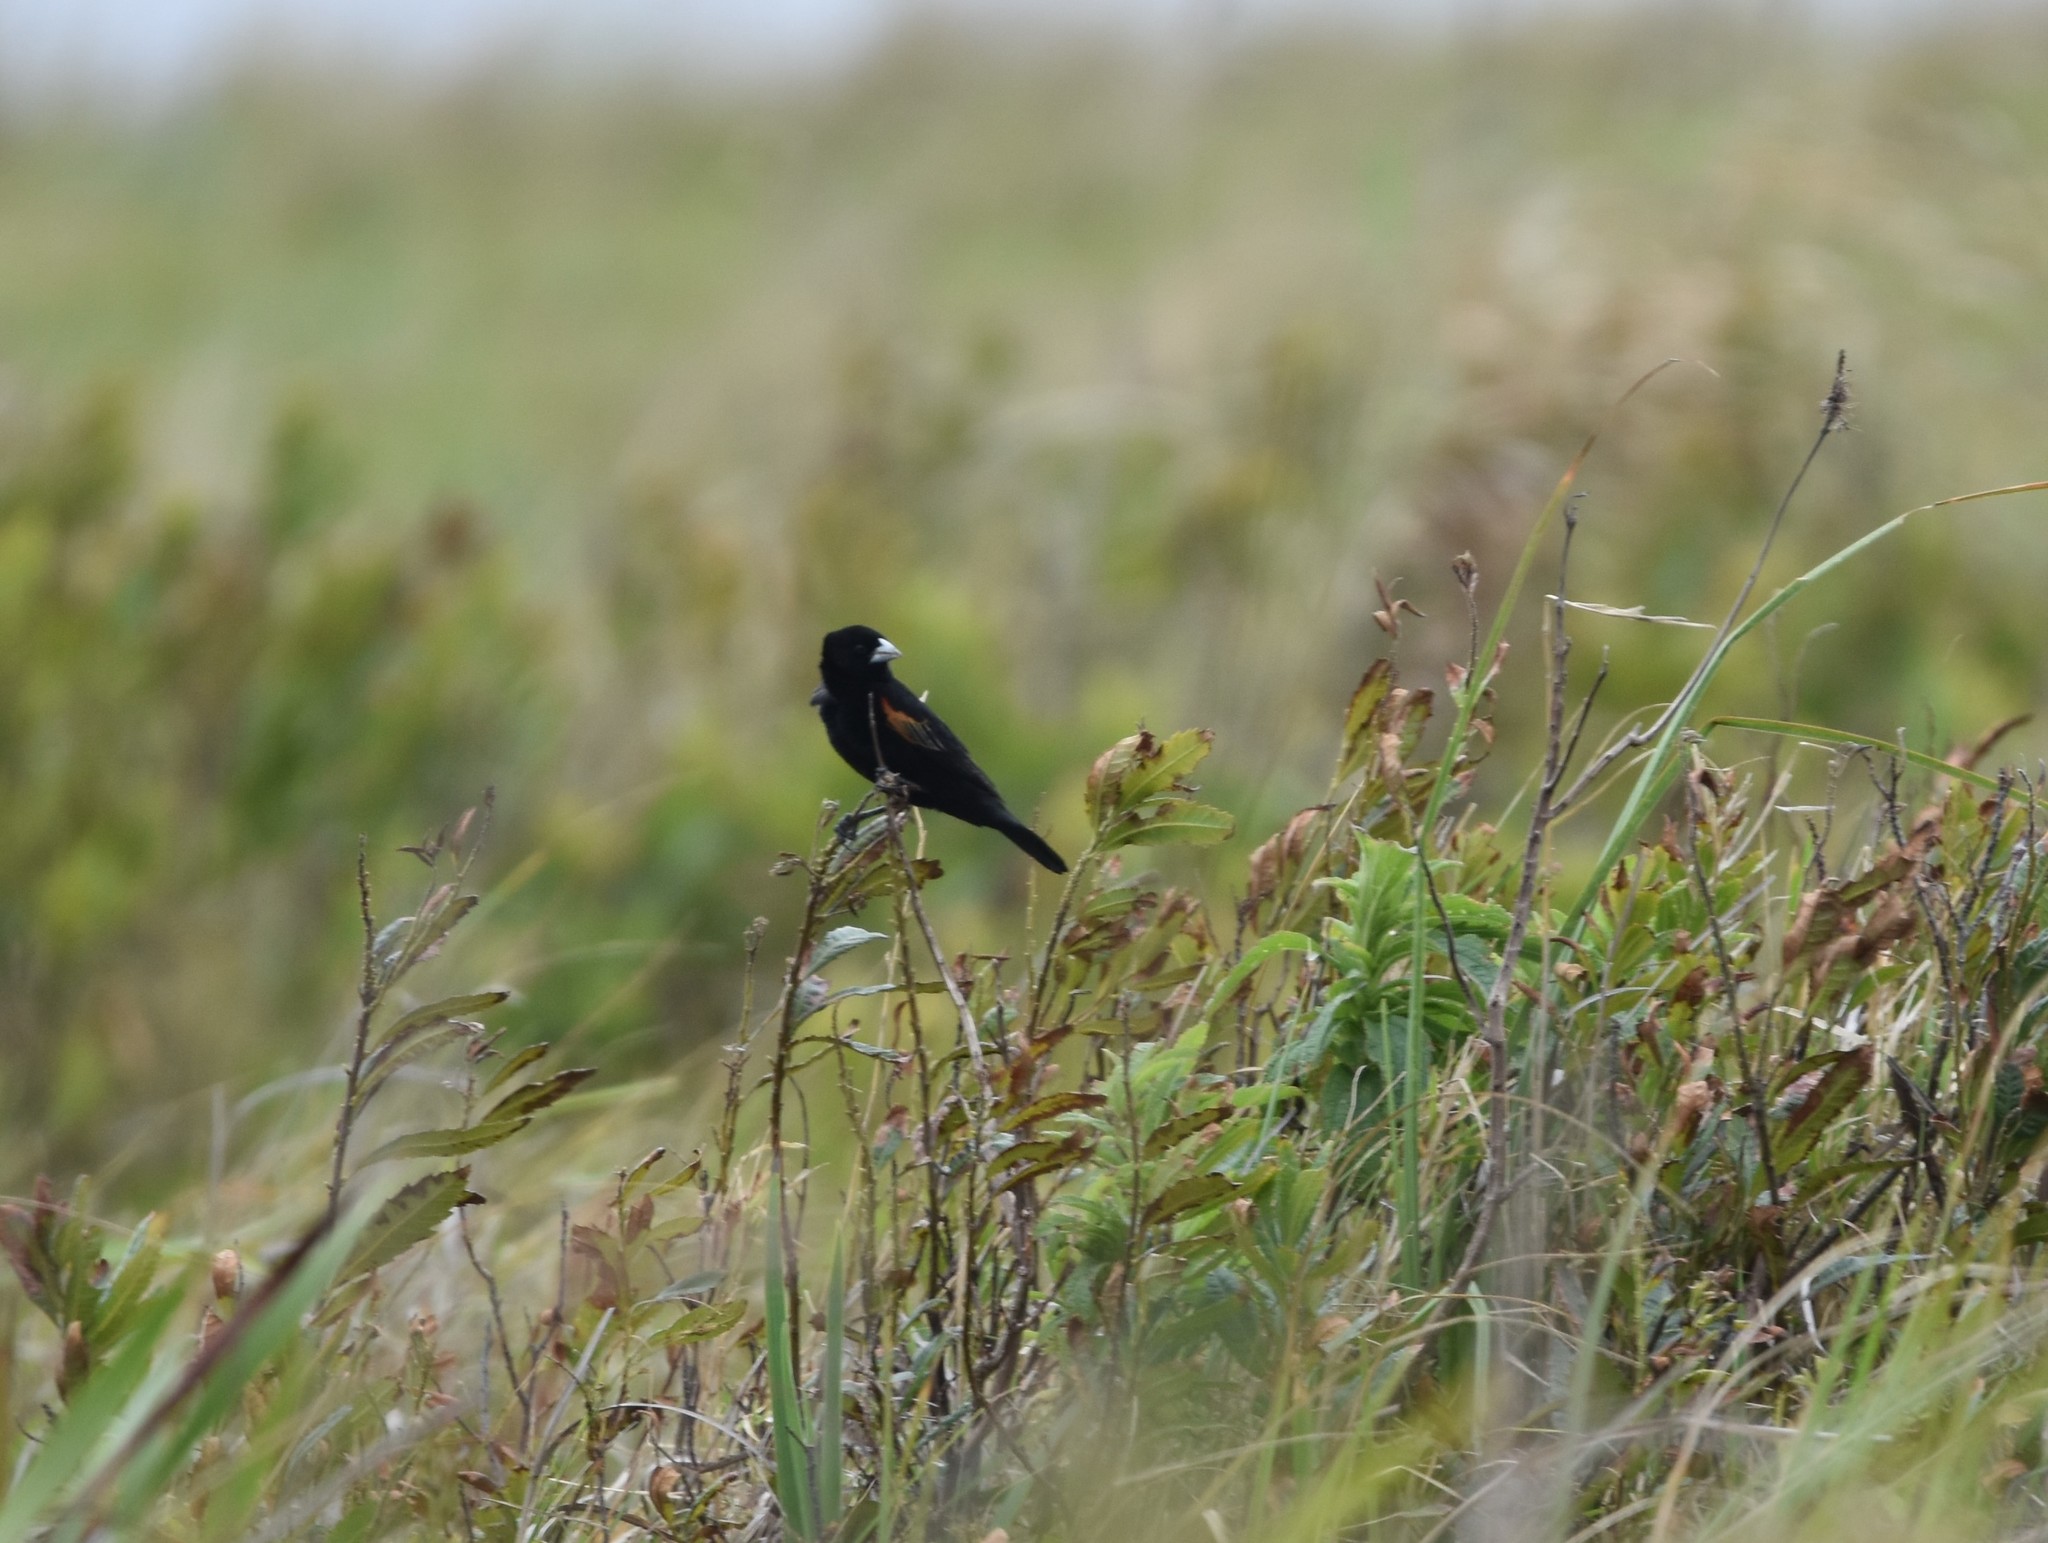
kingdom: Animalia
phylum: Chordata
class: Aves
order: Passeriformes
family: Ploceidae
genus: Euplectes
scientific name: Euplectes axillaris
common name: Fan-tailed widowbird
